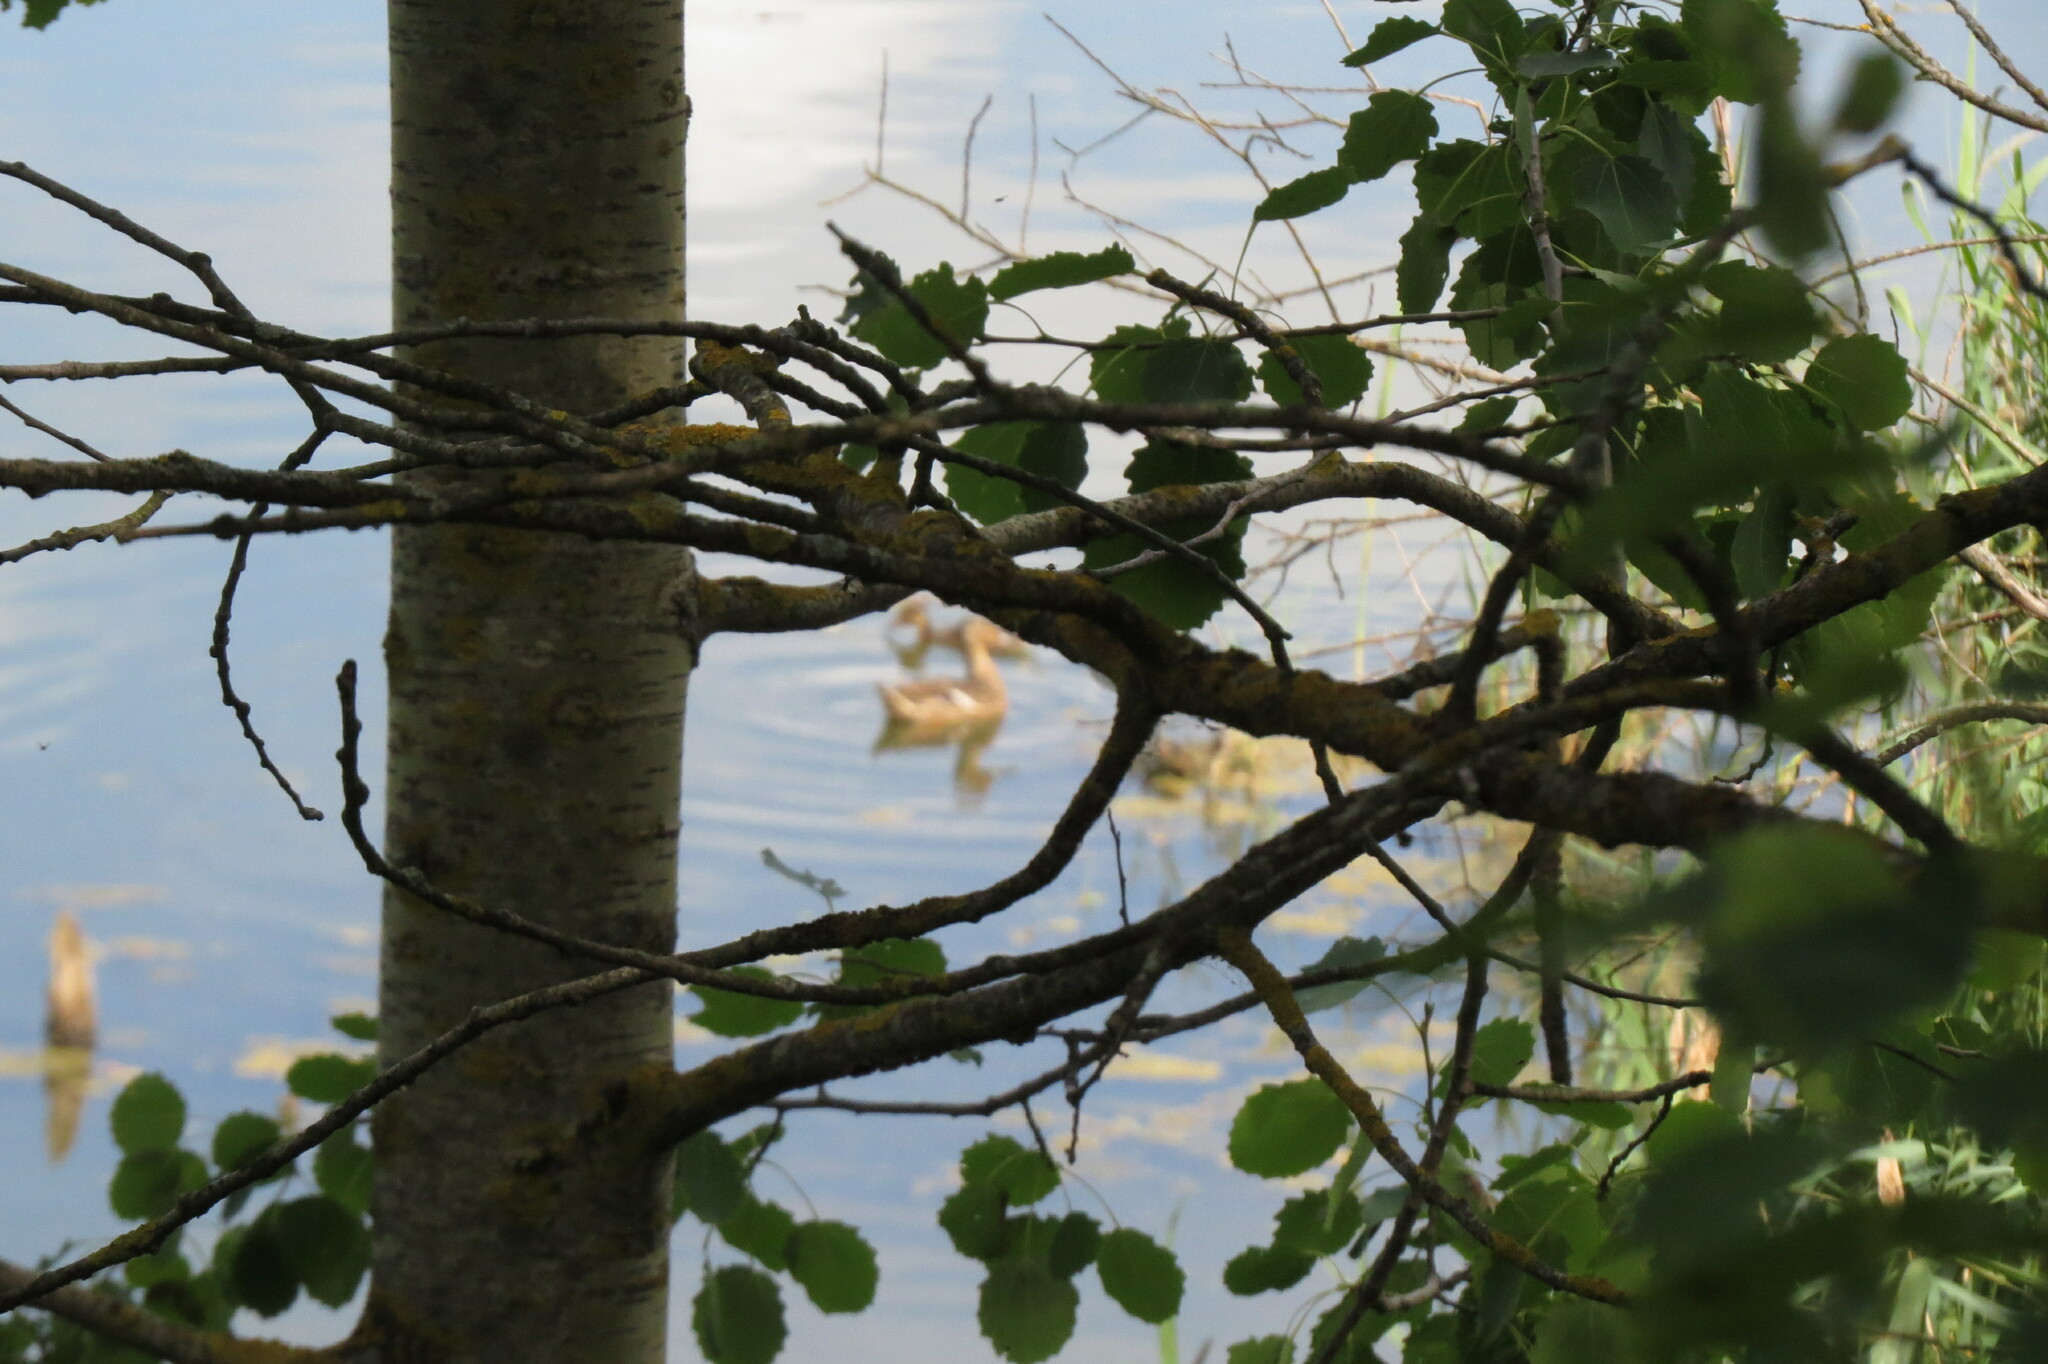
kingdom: Animalia
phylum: Chordata
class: Aves
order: Anseriformes
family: Anatidae
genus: Anas
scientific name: Anas platyrhynchos
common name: Mallard
